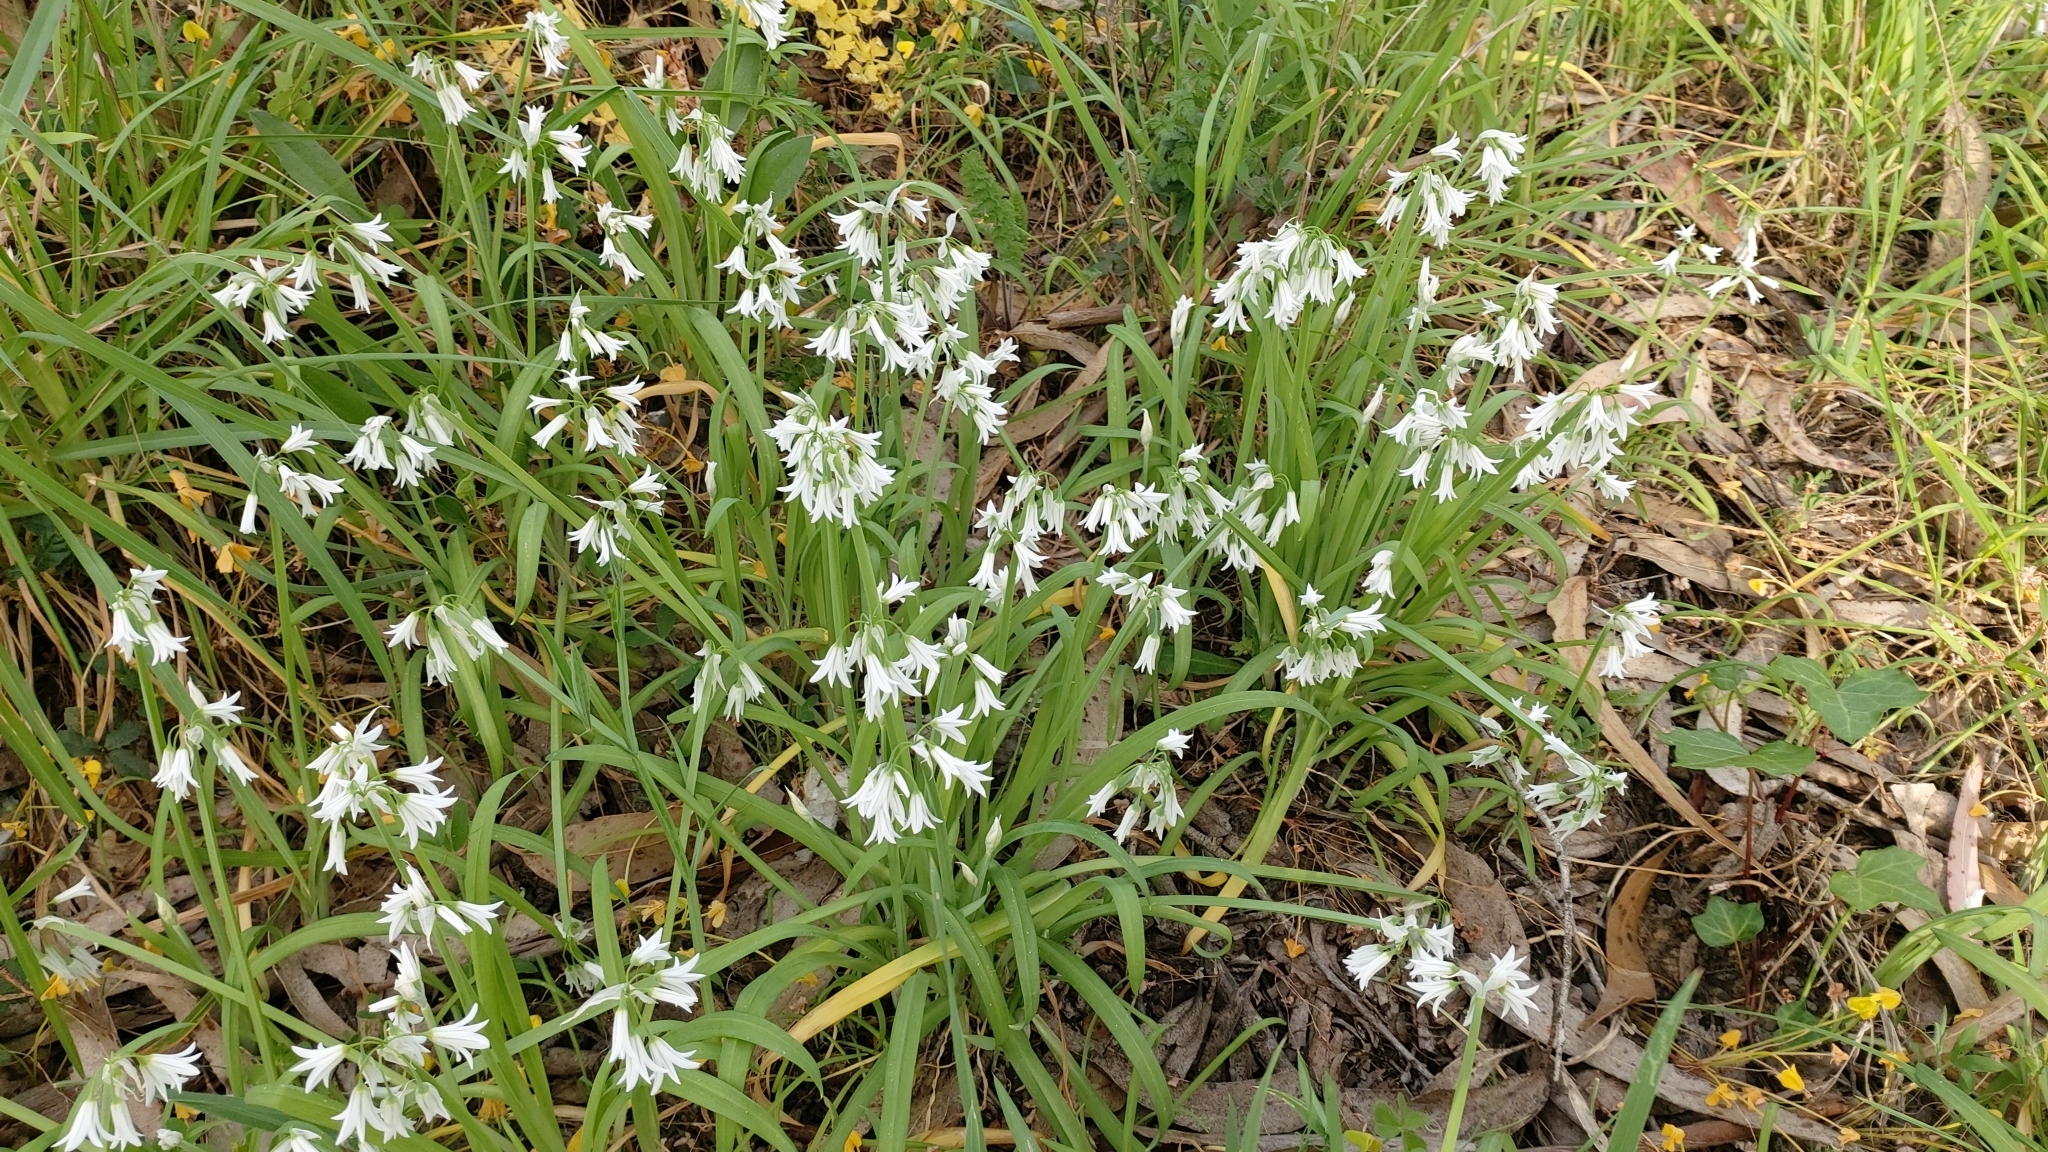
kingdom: Plantae
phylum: Tracheophyta
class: Liliopsida
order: Asparagales
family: Amaryllidaceae
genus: Allium
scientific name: Allium triquetrum
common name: Three-cornered garlic
